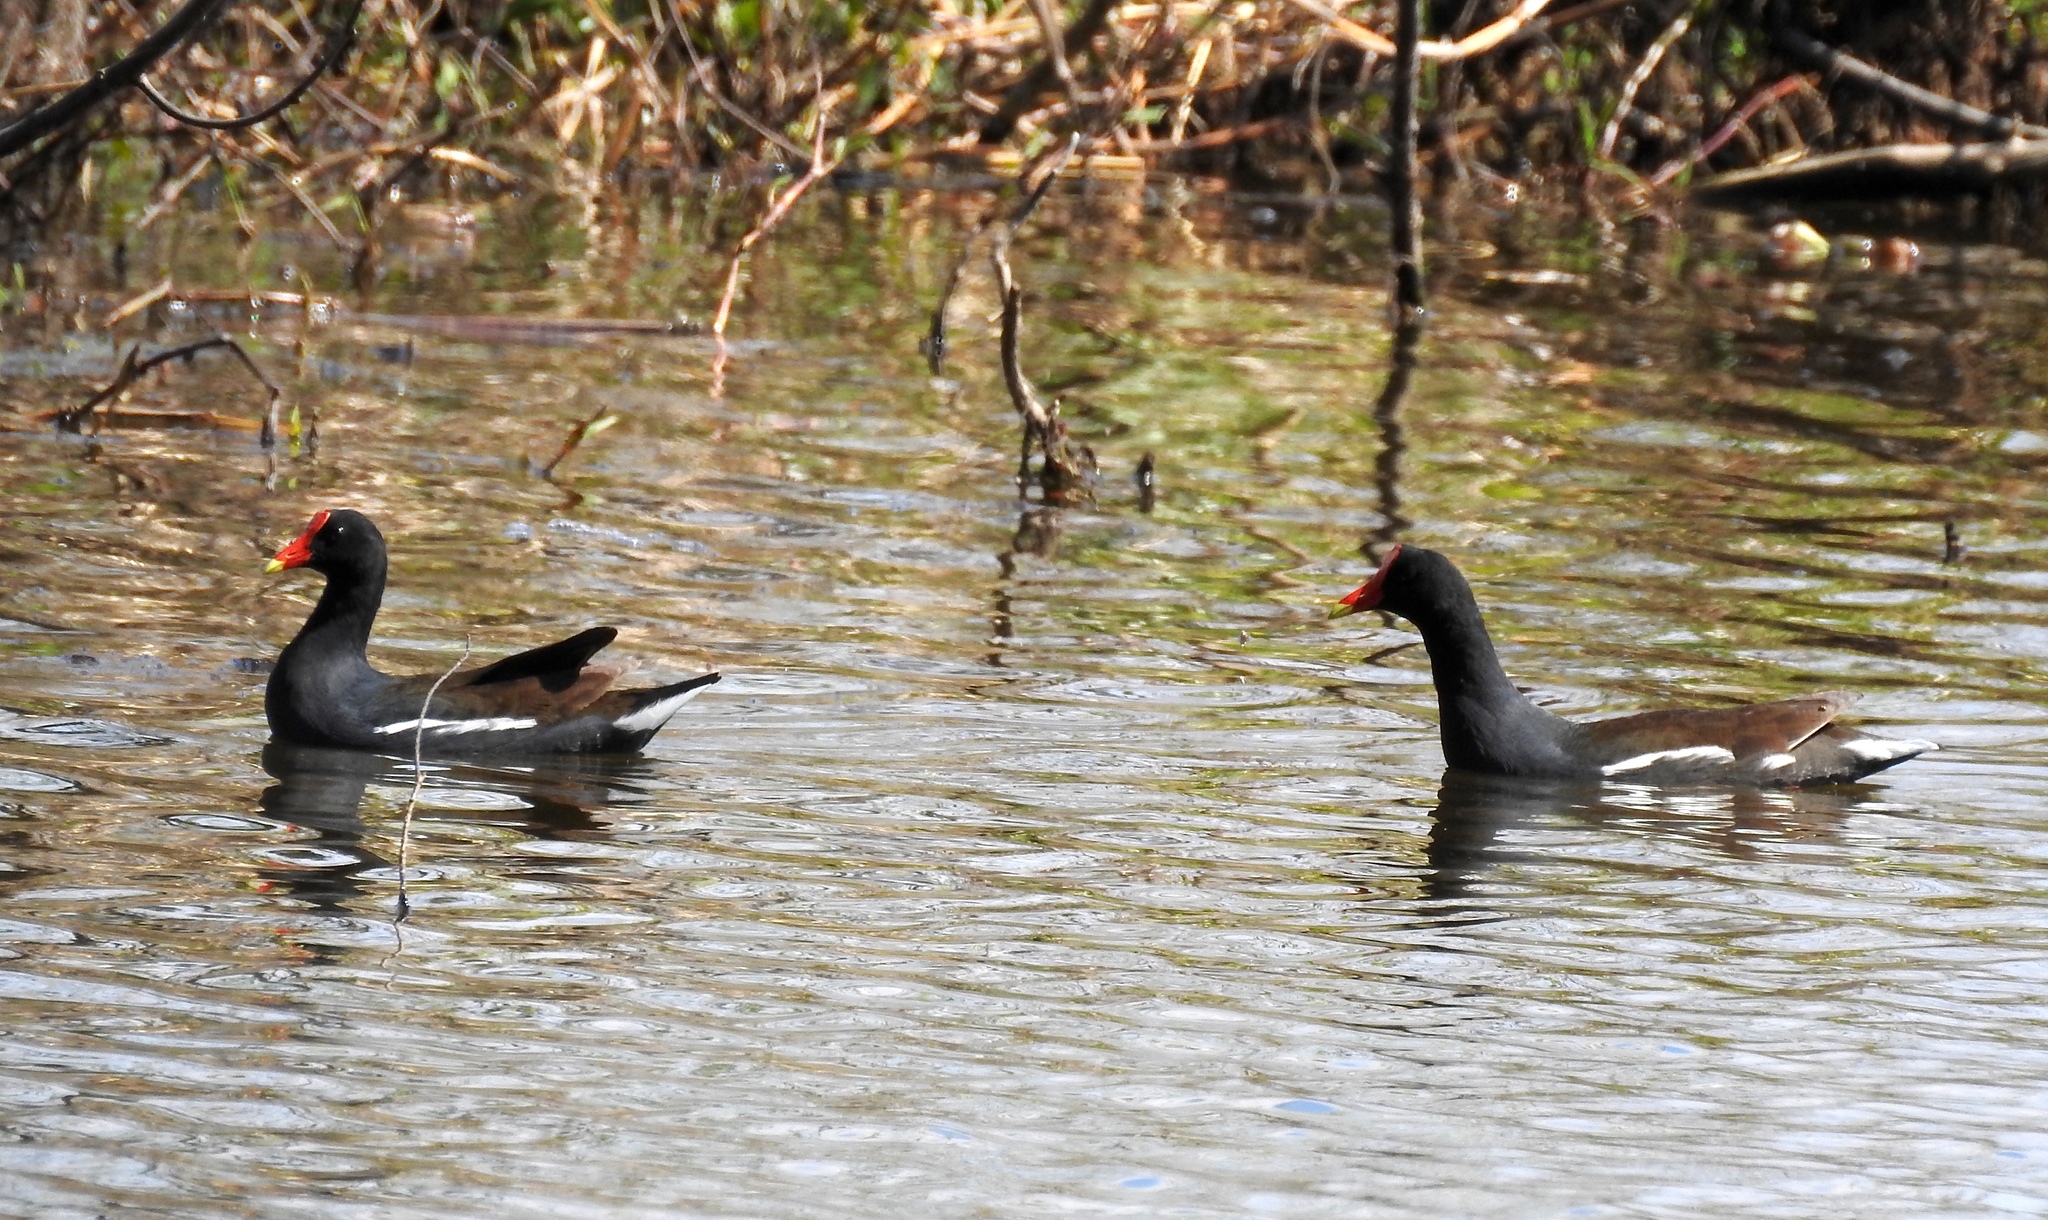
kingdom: Animalia
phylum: Chordata
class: Aves
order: Gruiformes
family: Rallidae
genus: Gallinula
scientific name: Gallinula chloropus
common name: Common moorhen
